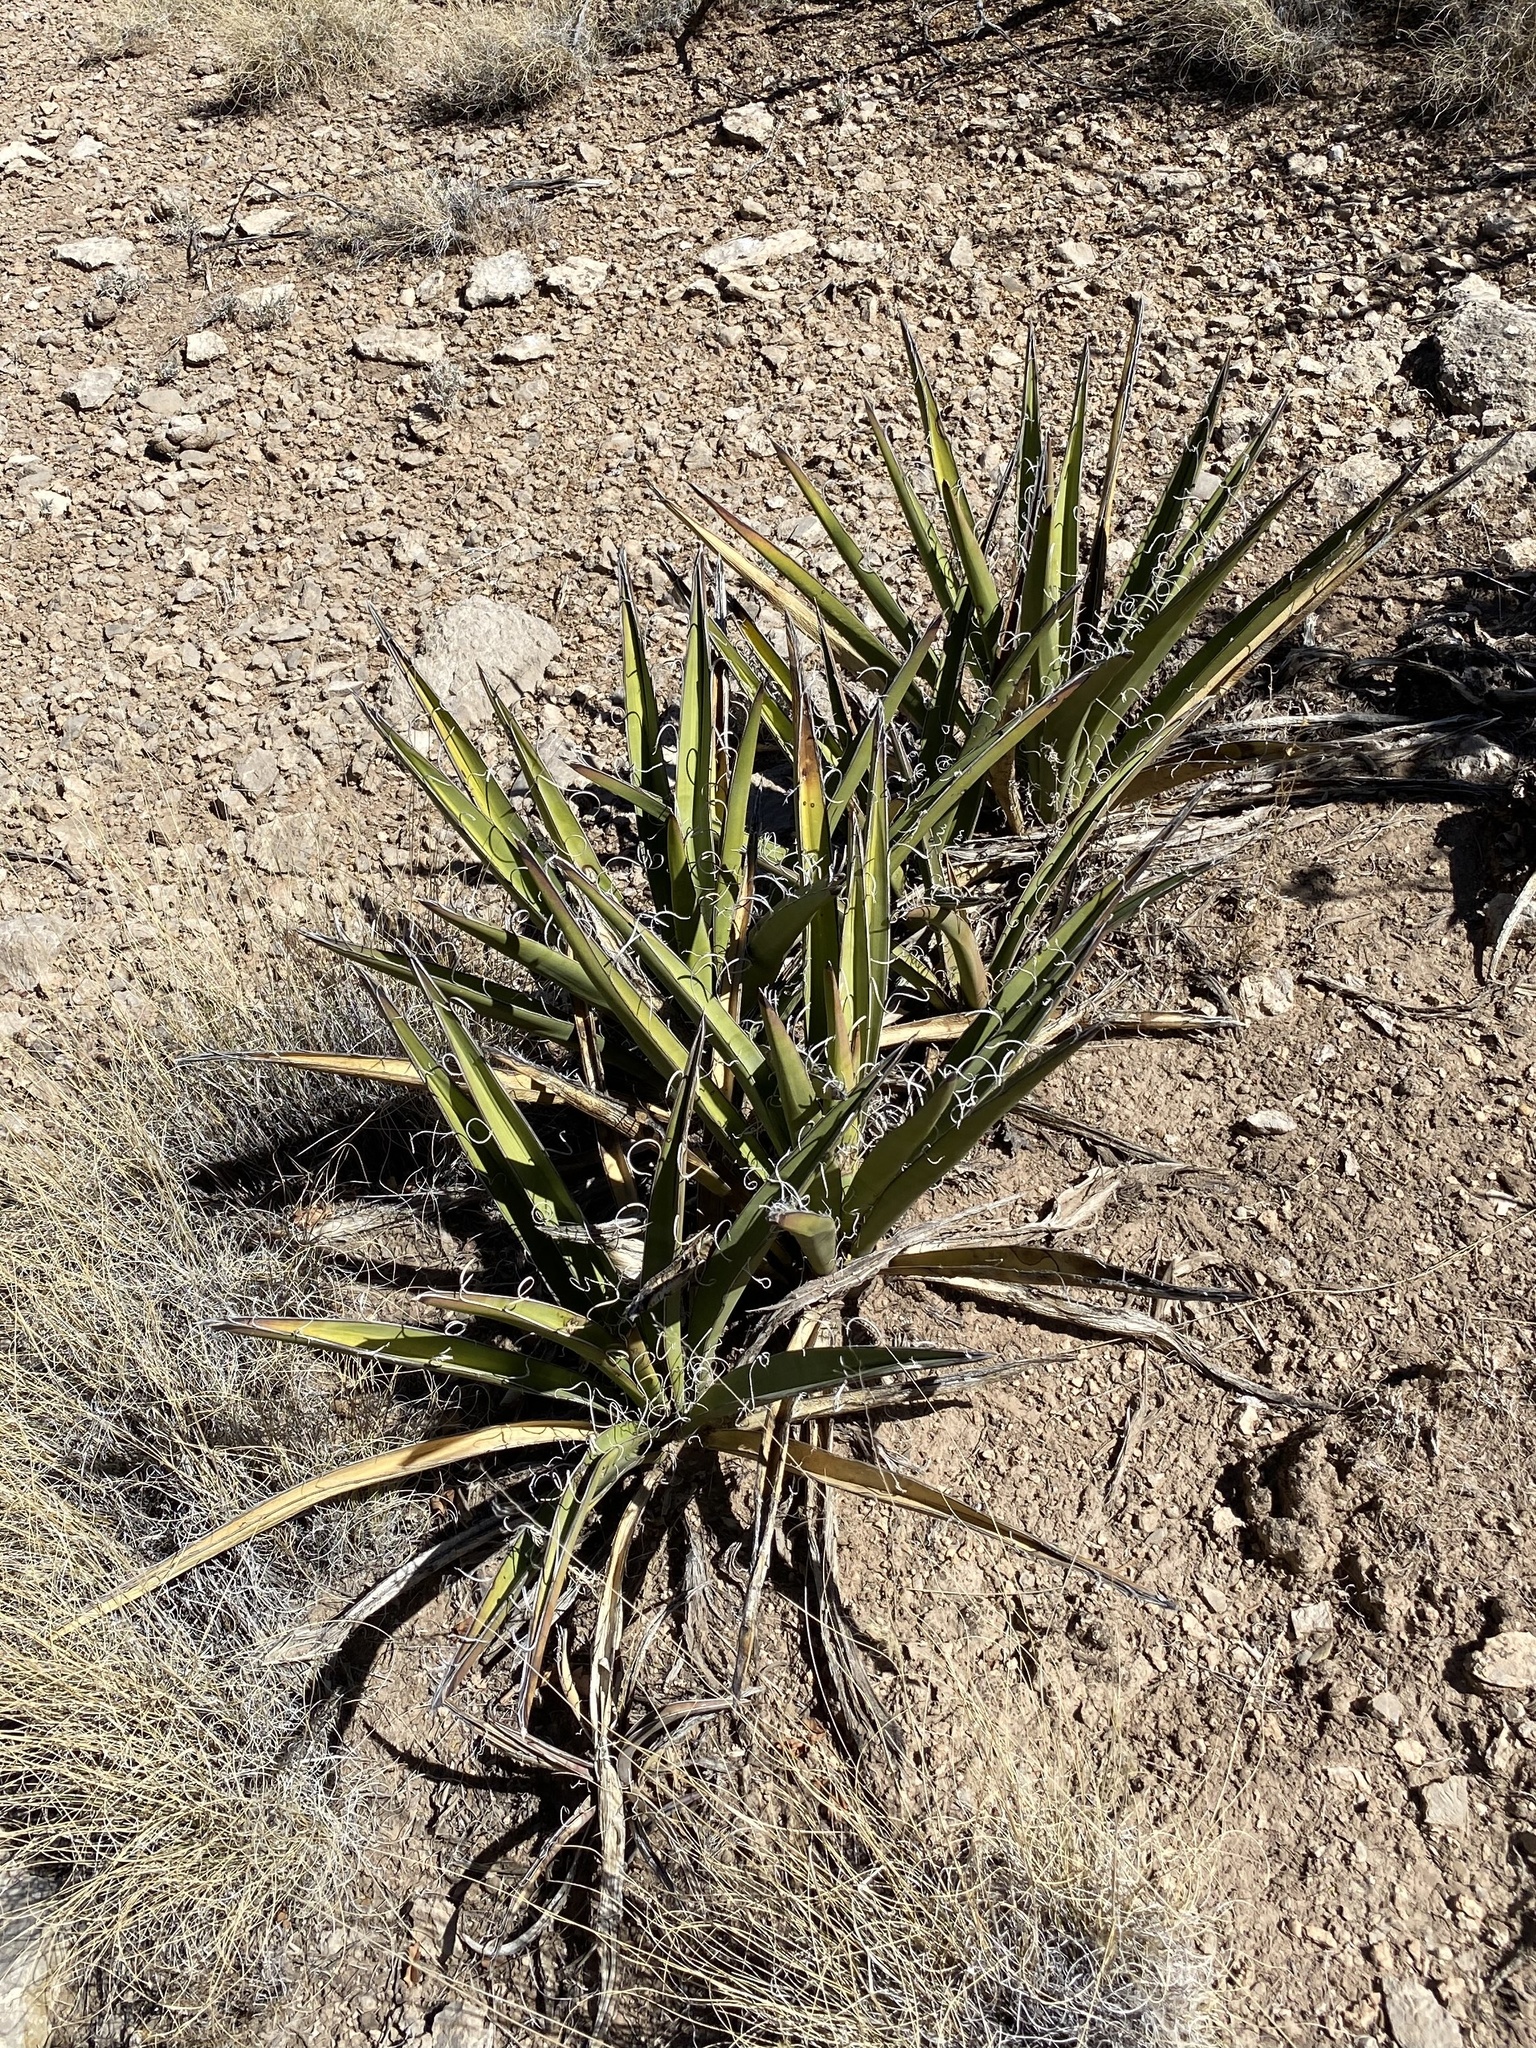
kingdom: Plantae
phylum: Tracheophyta
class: Liliopsida
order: Asparagales
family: Asparagaceae
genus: Yucca
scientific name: Yucca baccata
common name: Banana yucca
